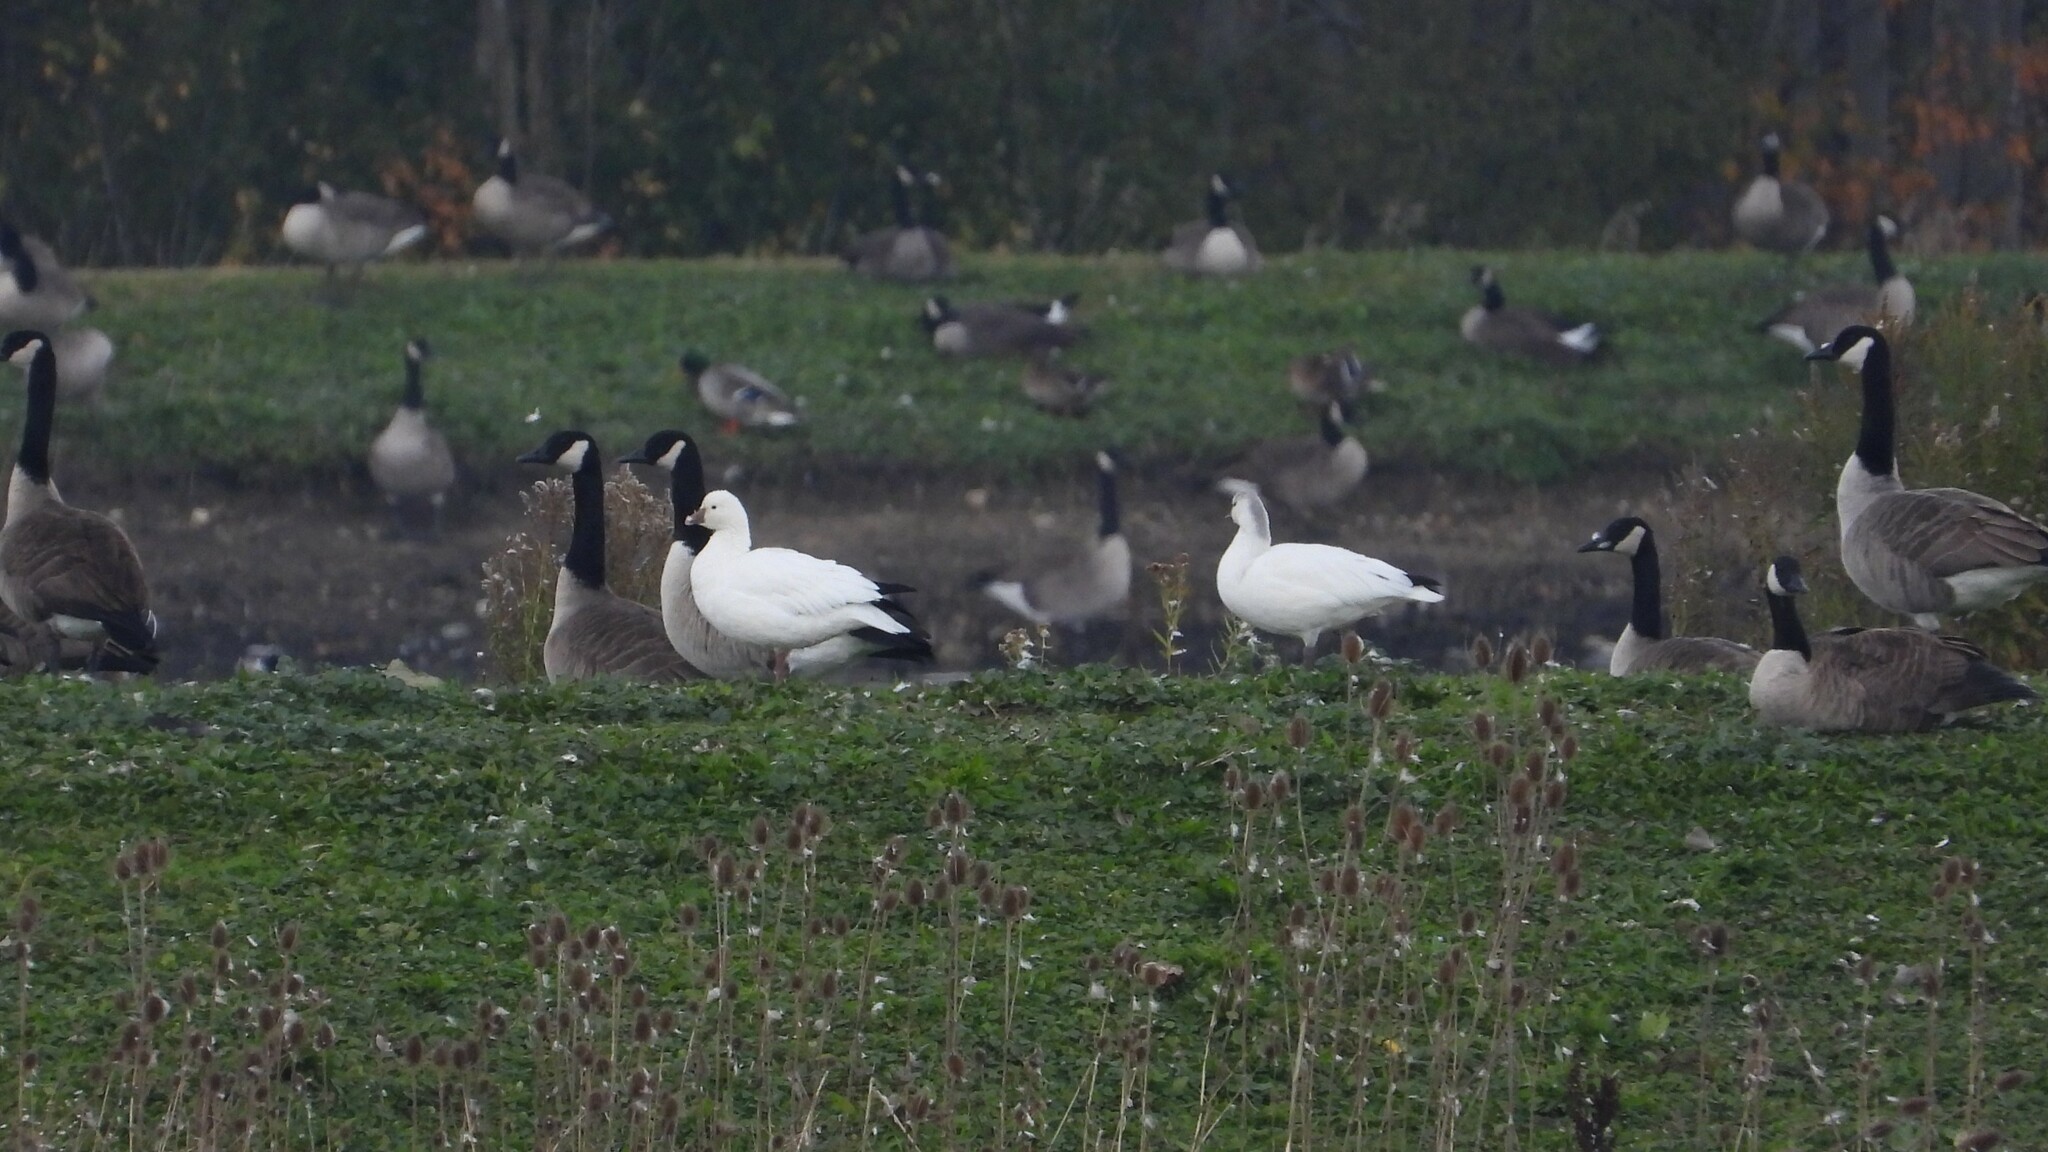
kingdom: Animalia
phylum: Chordata
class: Aves
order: Anseriformes
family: Anatidae
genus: Anser
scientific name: Anser rossii
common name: Ross's goose
